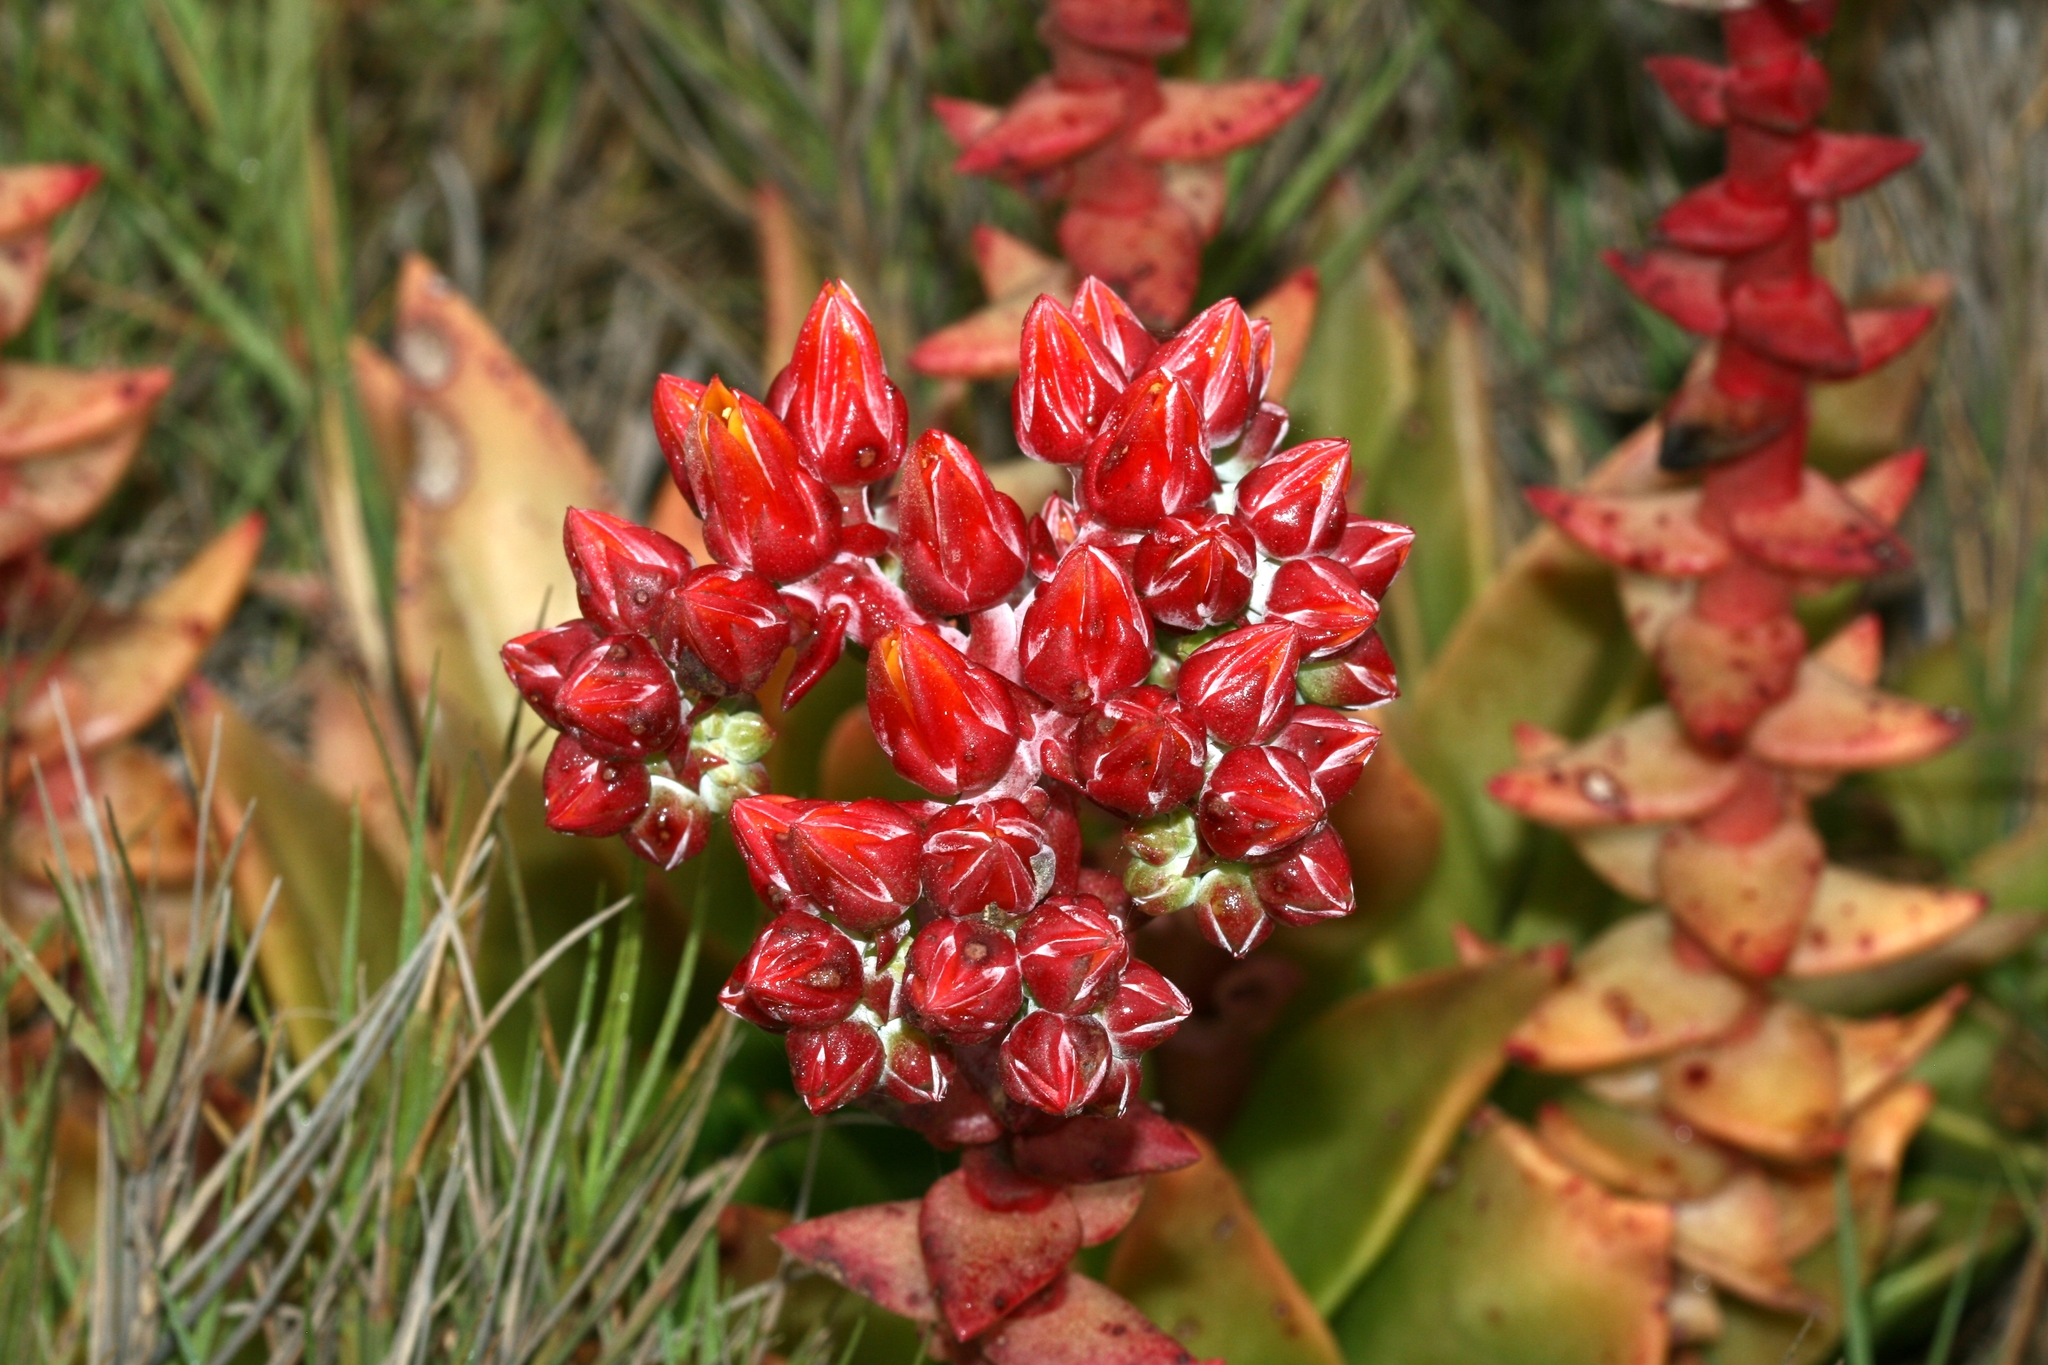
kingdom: Plantae
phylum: Tracheophyta
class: Magnoliopsida
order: Saxifragales
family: Crassulaceae
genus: Dudleya
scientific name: Dudleya palmeri
